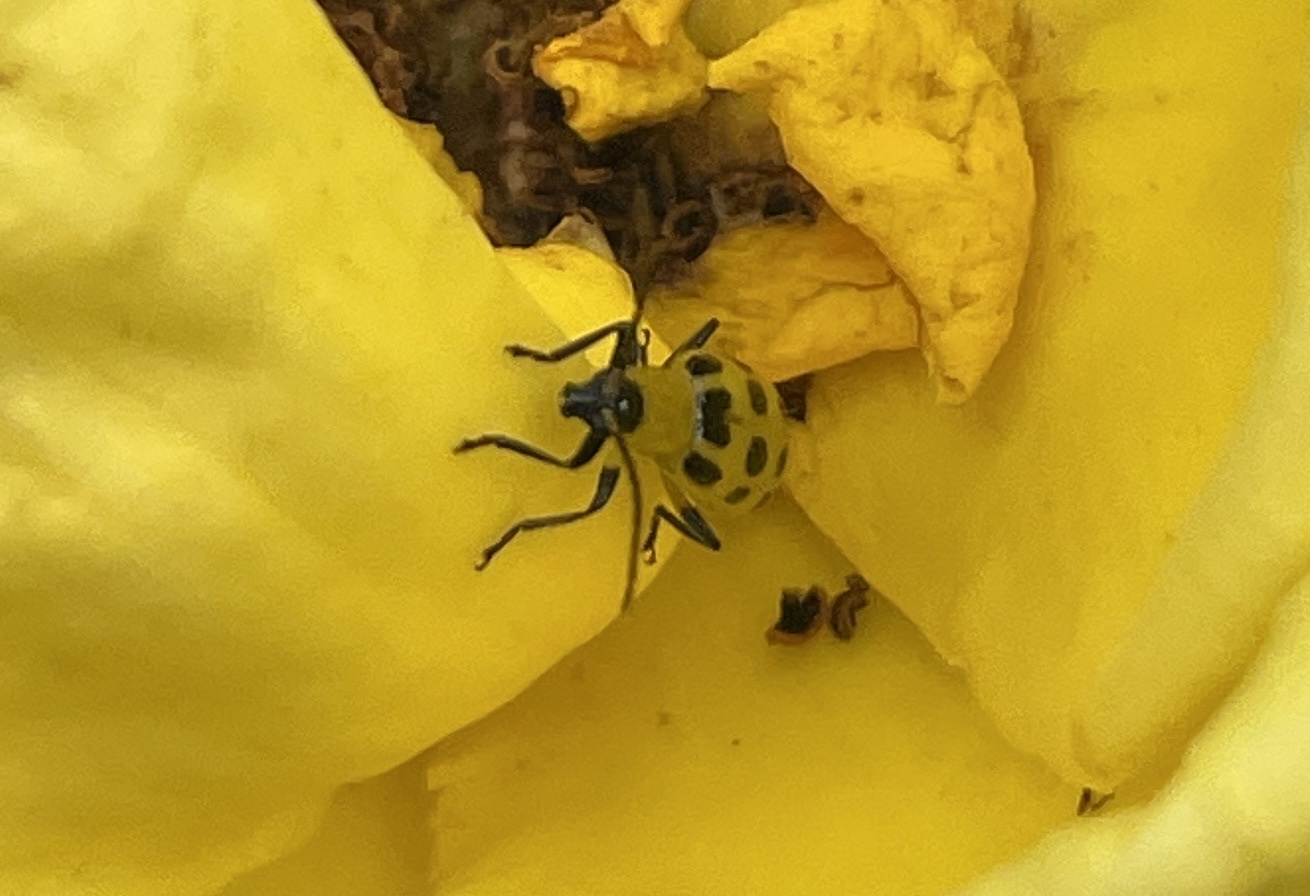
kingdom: Animalia
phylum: Arthropoda
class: Insecta
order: Coleoptera
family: Chrysomelidae
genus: Diabrotica
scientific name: Diabrotica undecimpunctata
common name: Spotted cucumber beetle
